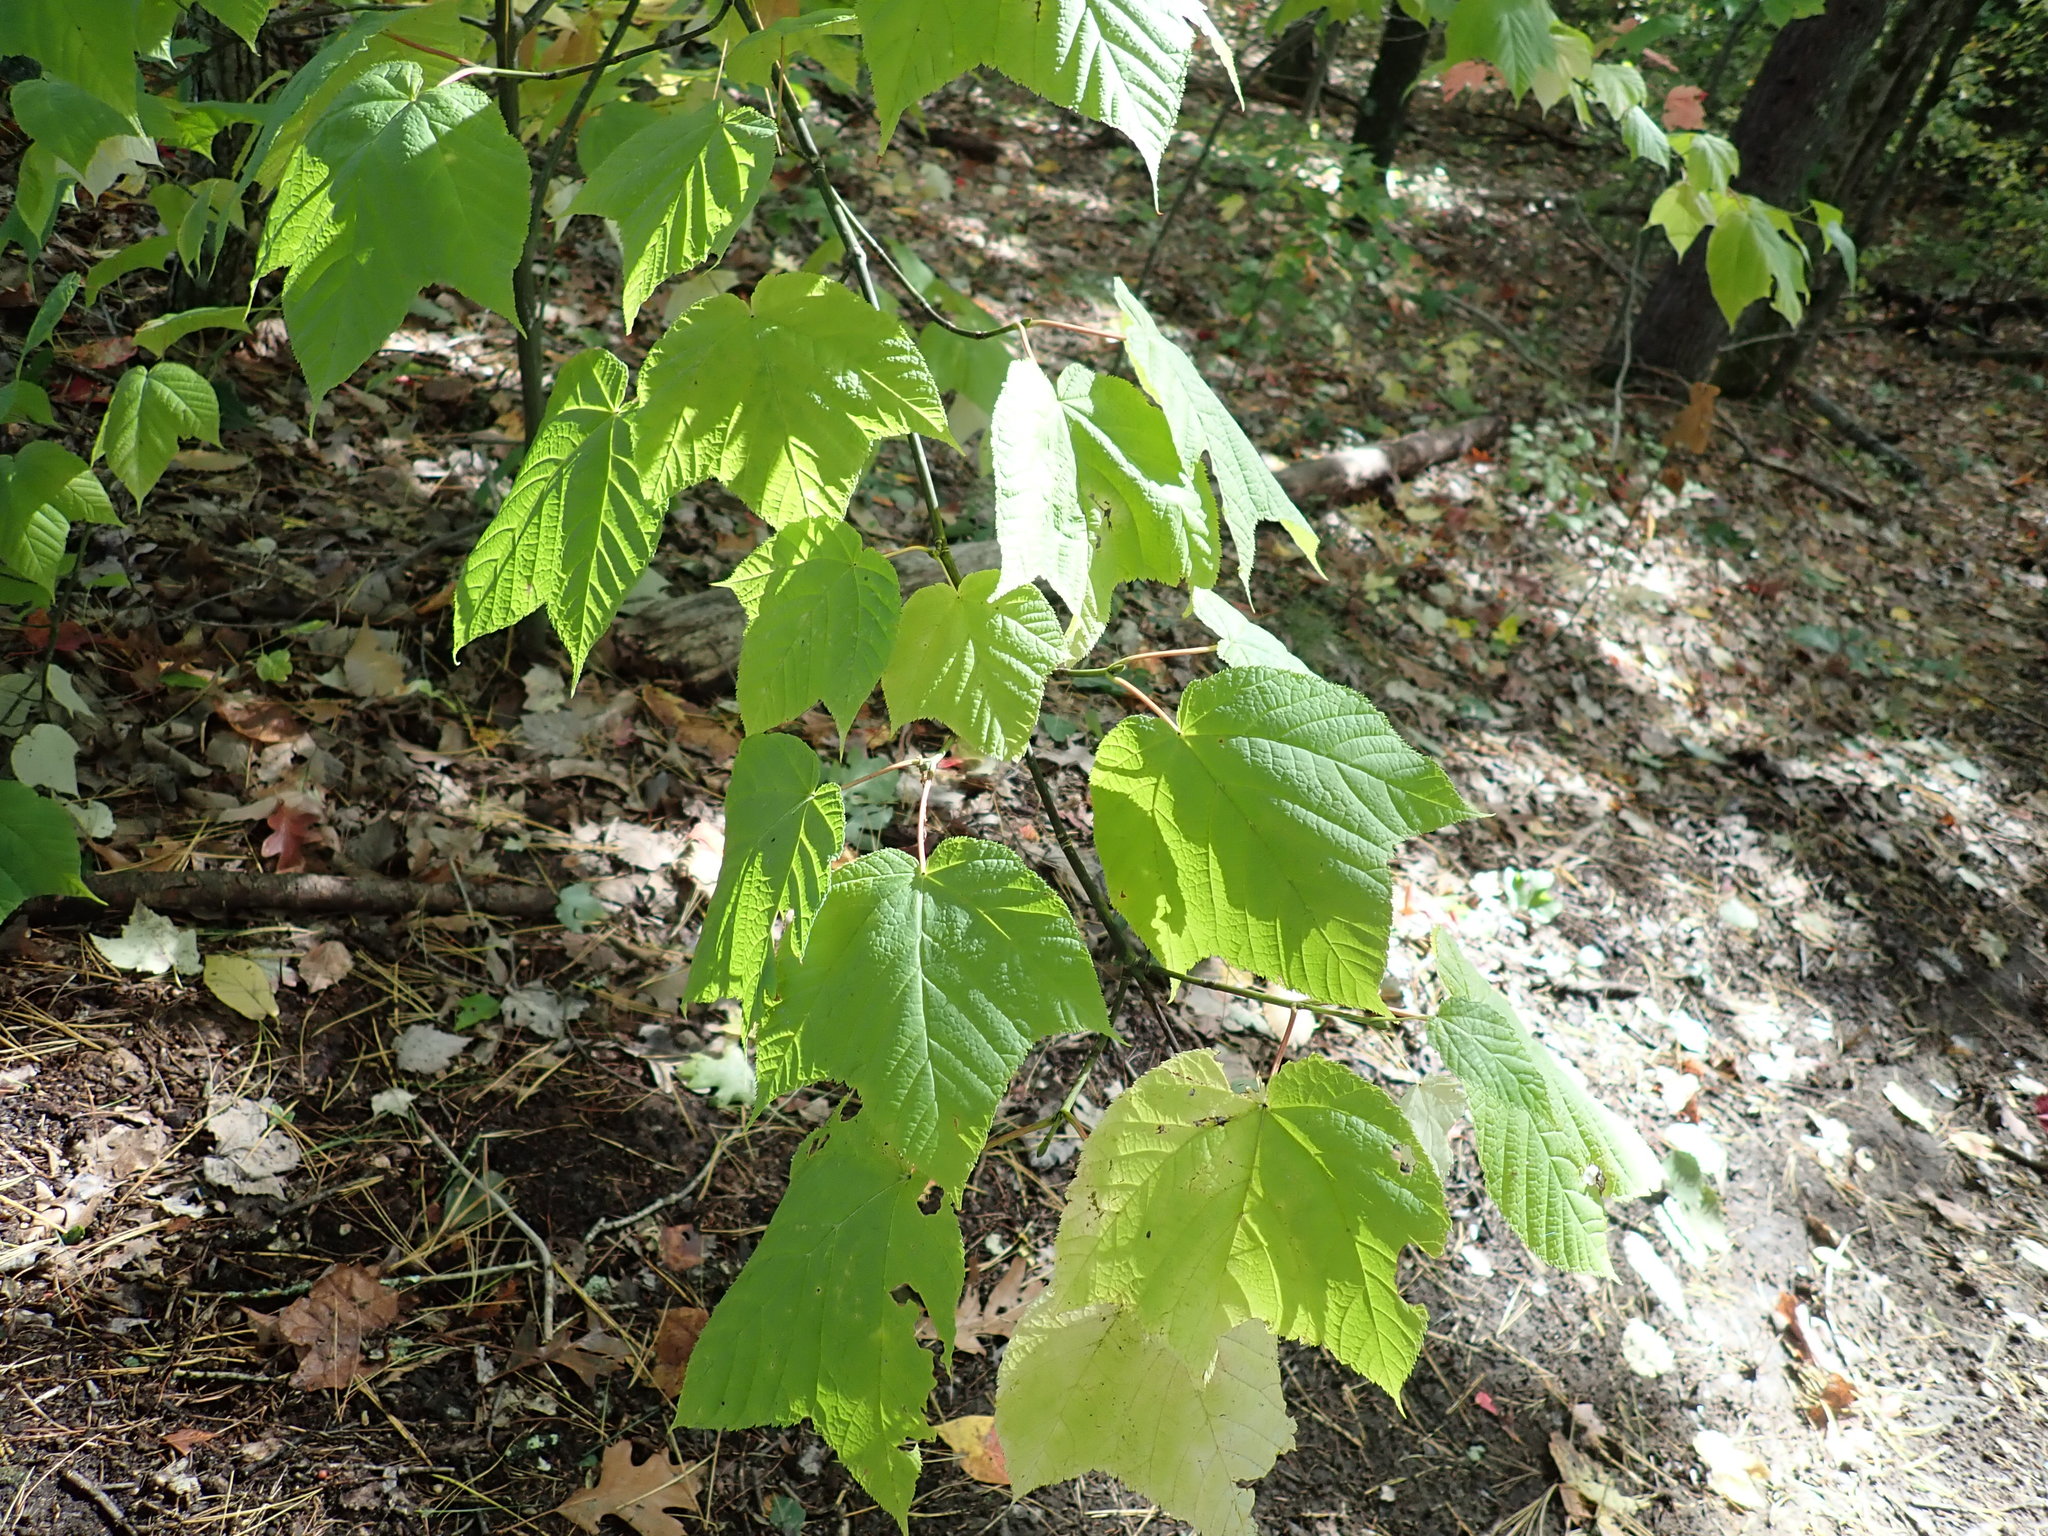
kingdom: Plantae
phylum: Tracheophyta
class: Magnoliopsida
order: Sapindales
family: Sapindaceae
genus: Acer
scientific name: Acer pensylvanicum
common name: Moosewood
